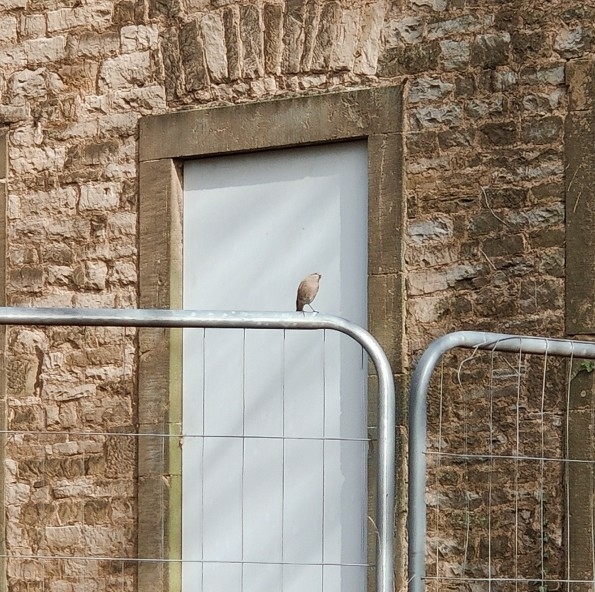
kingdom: Animalia
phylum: Chordata
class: Aves
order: Passeriformes
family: Muscicapidae
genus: Phoenicurus
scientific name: Phoenicurus ochruros
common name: Black redstart
